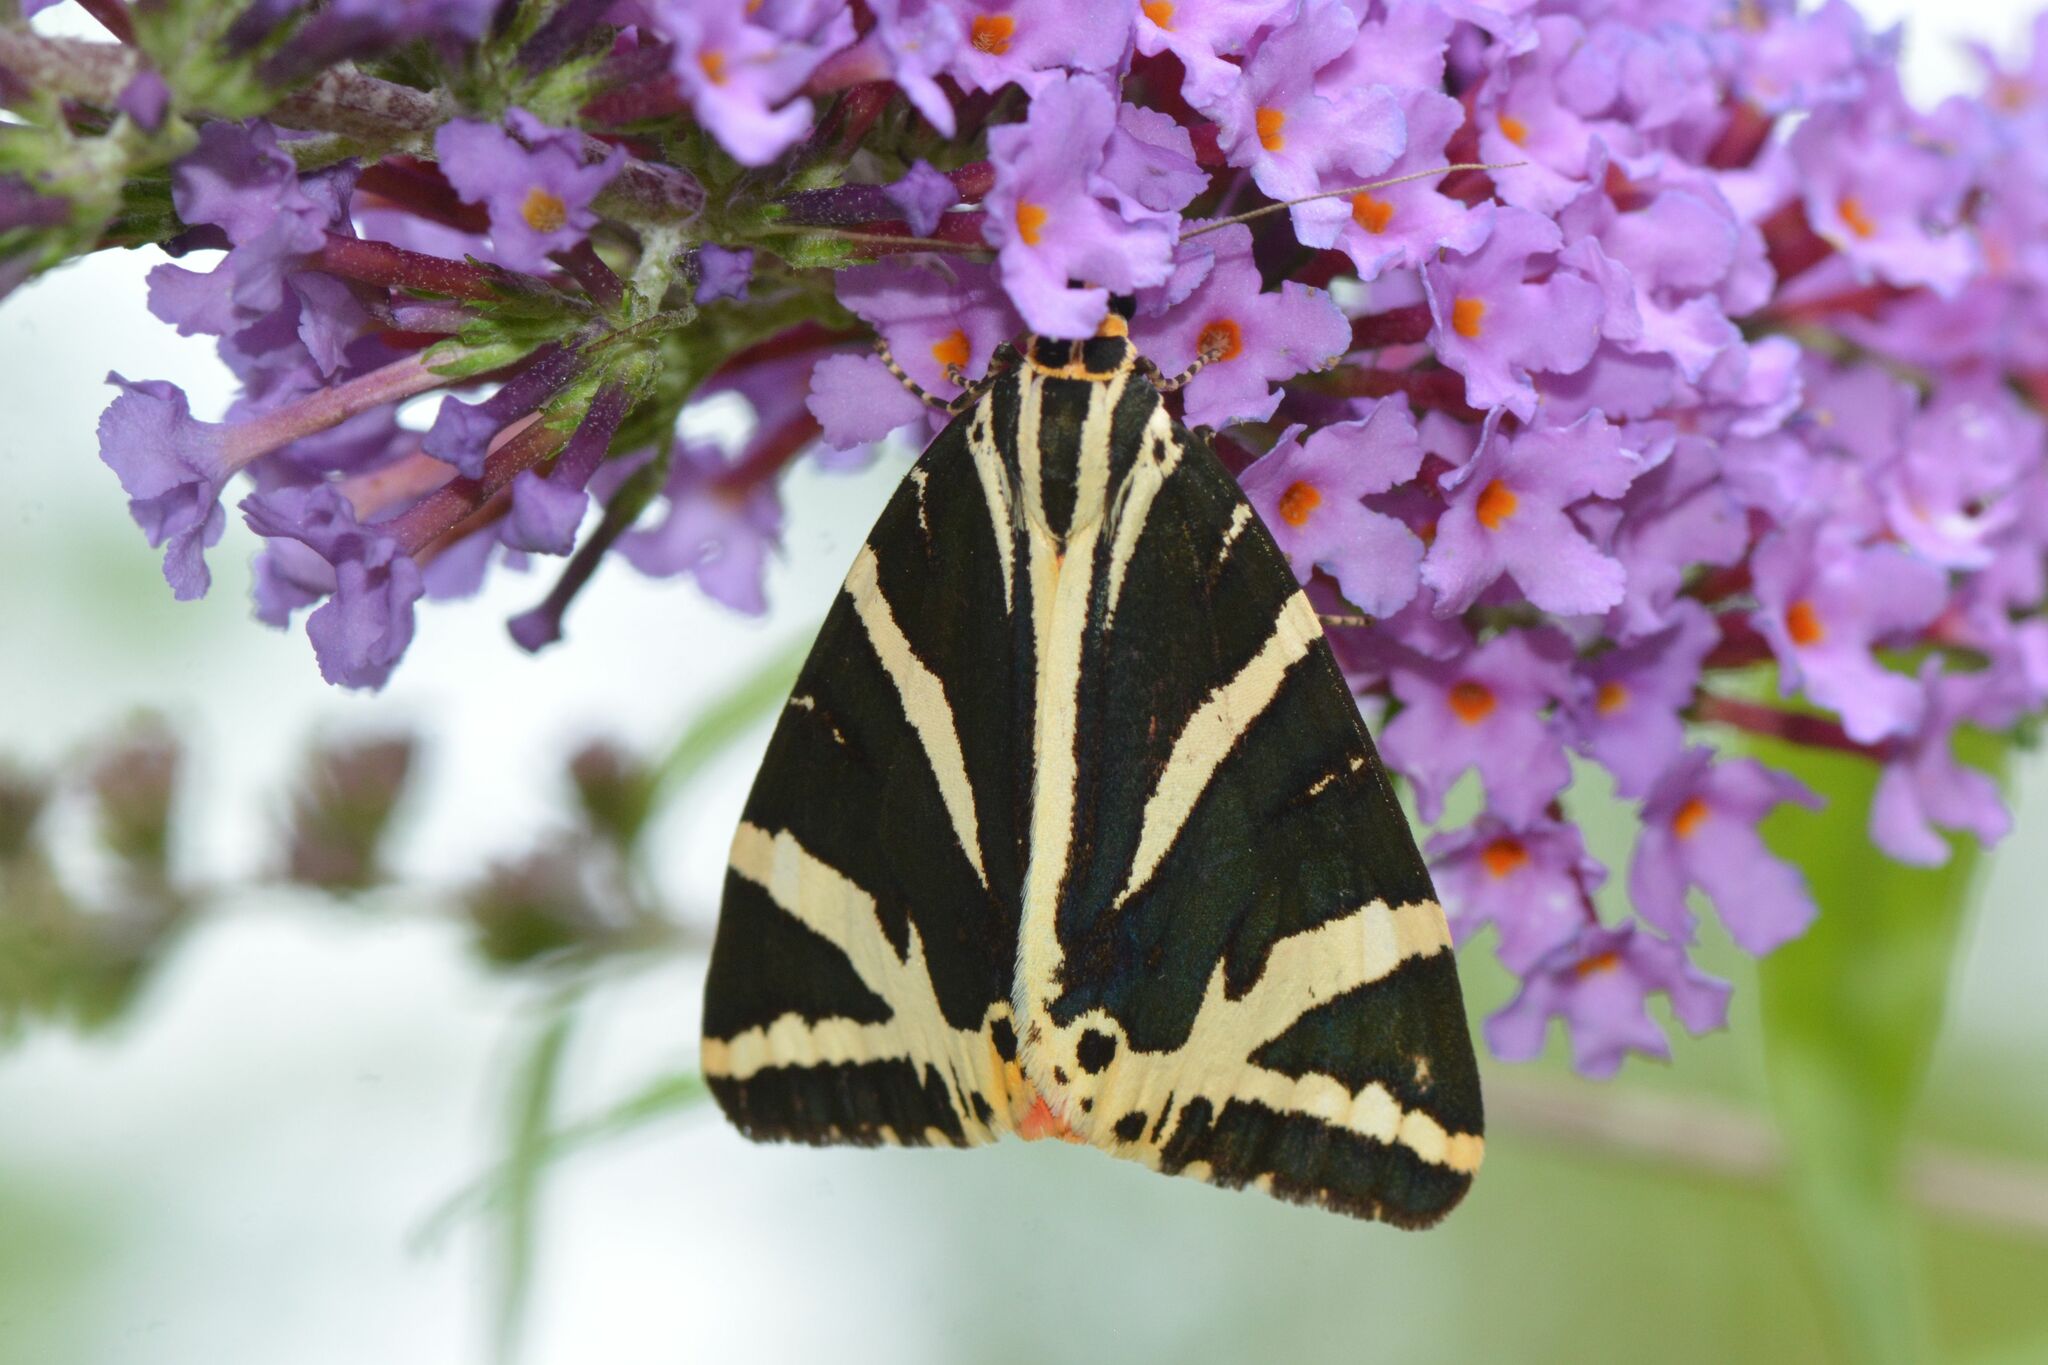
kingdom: Animalia
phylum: Arthropoda
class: Insecta
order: Lepidoptera
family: Erebidae
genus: Euplagia
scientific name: Euplagia quadripunctaria
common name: Jersey tiger
